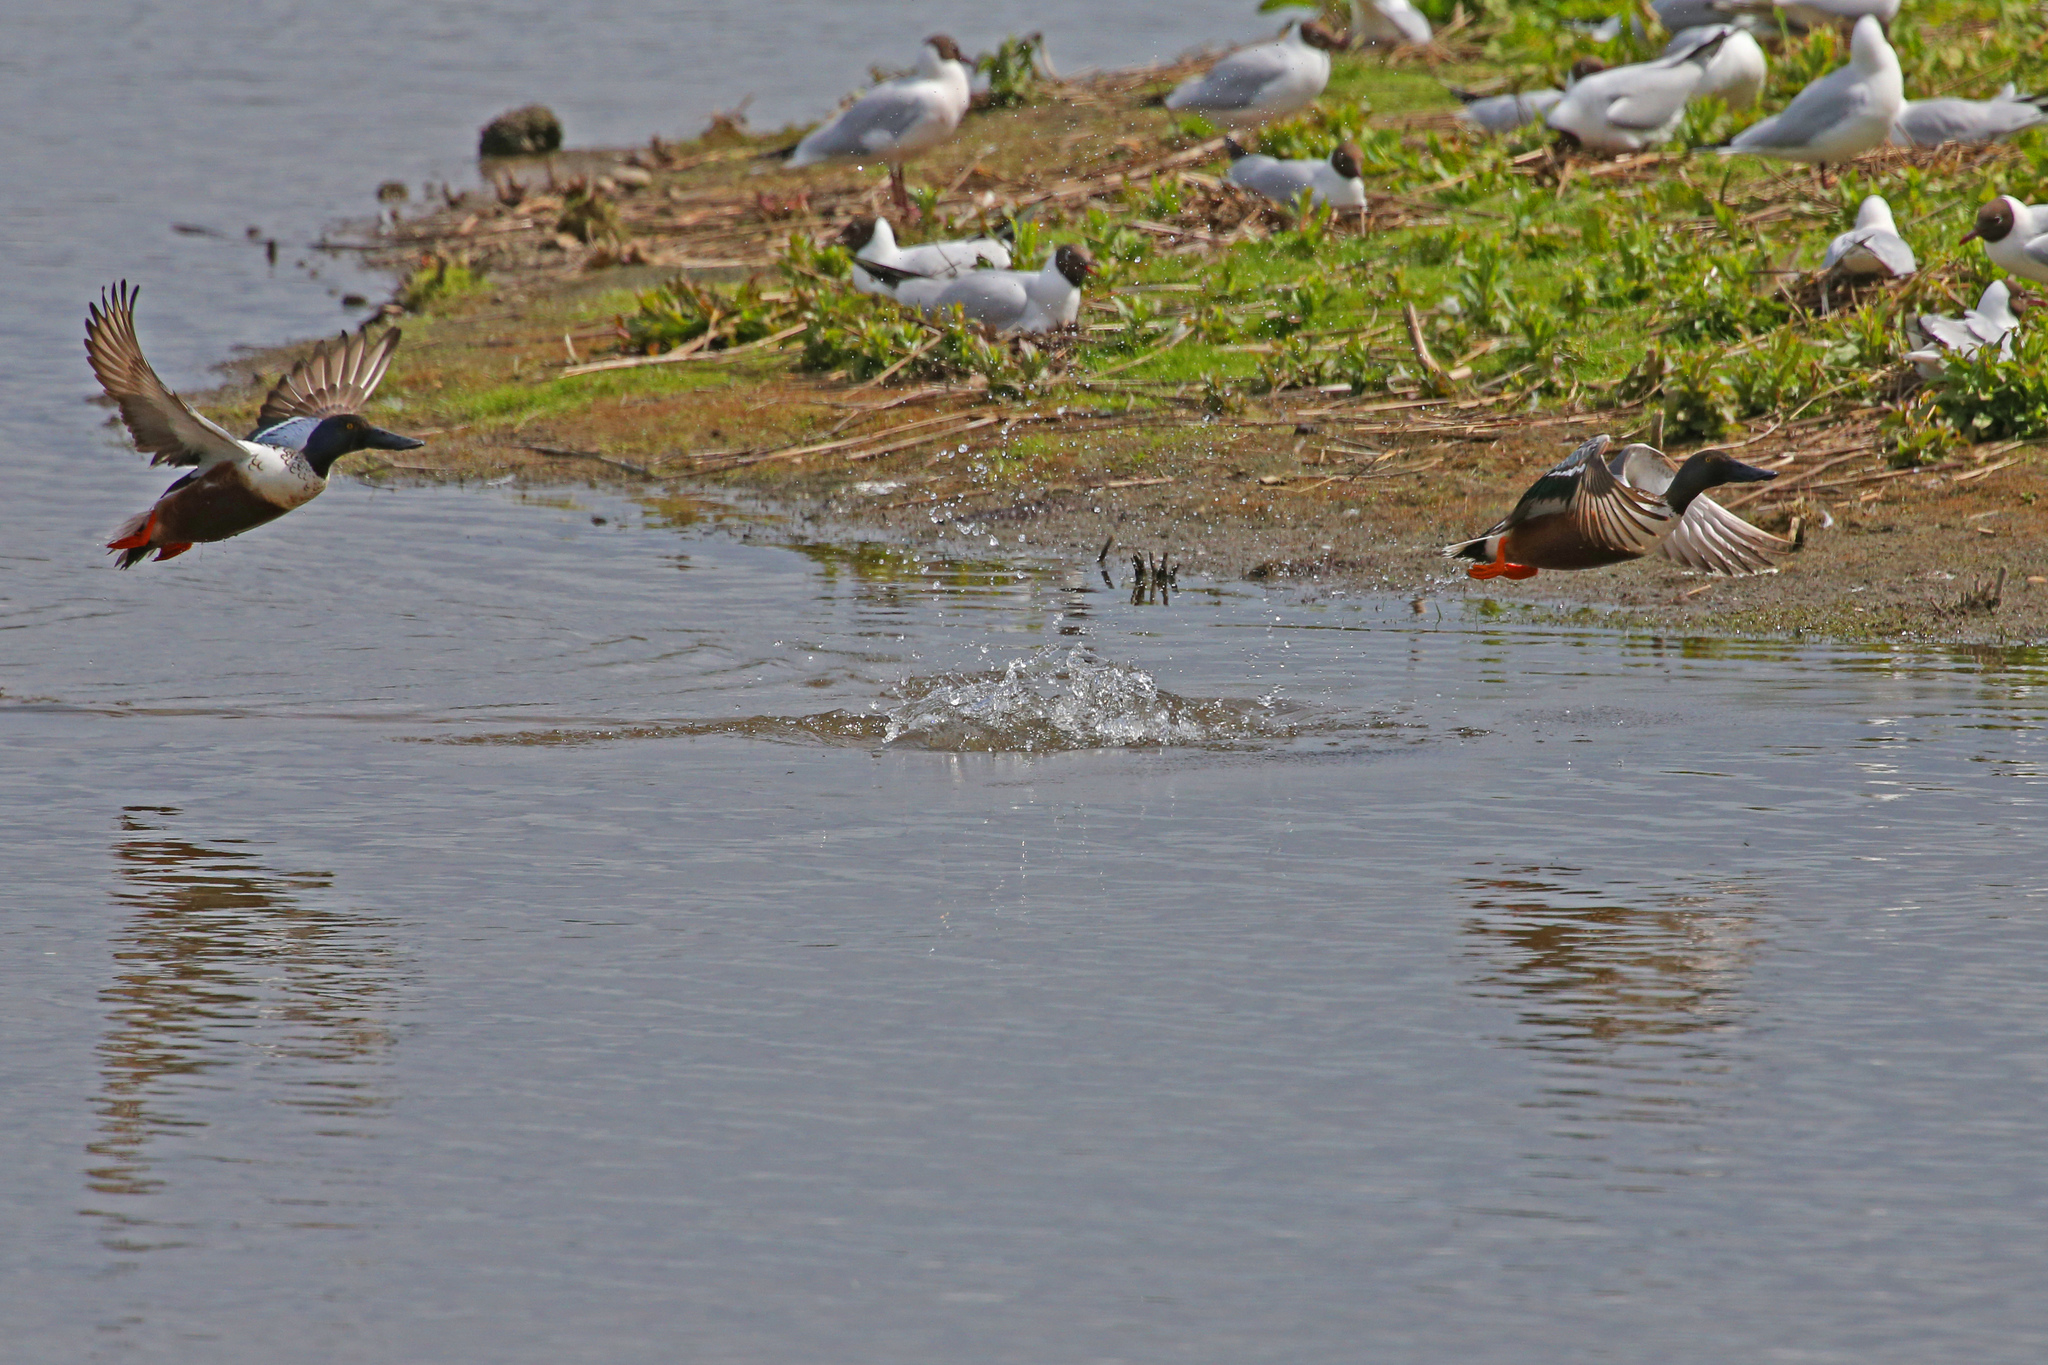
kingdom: Animalia
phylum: Chordata
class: Aves
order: Anseriformes
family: Anatidae
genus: Spatula
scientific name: Spatula clypeata
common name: Northern shoveler
